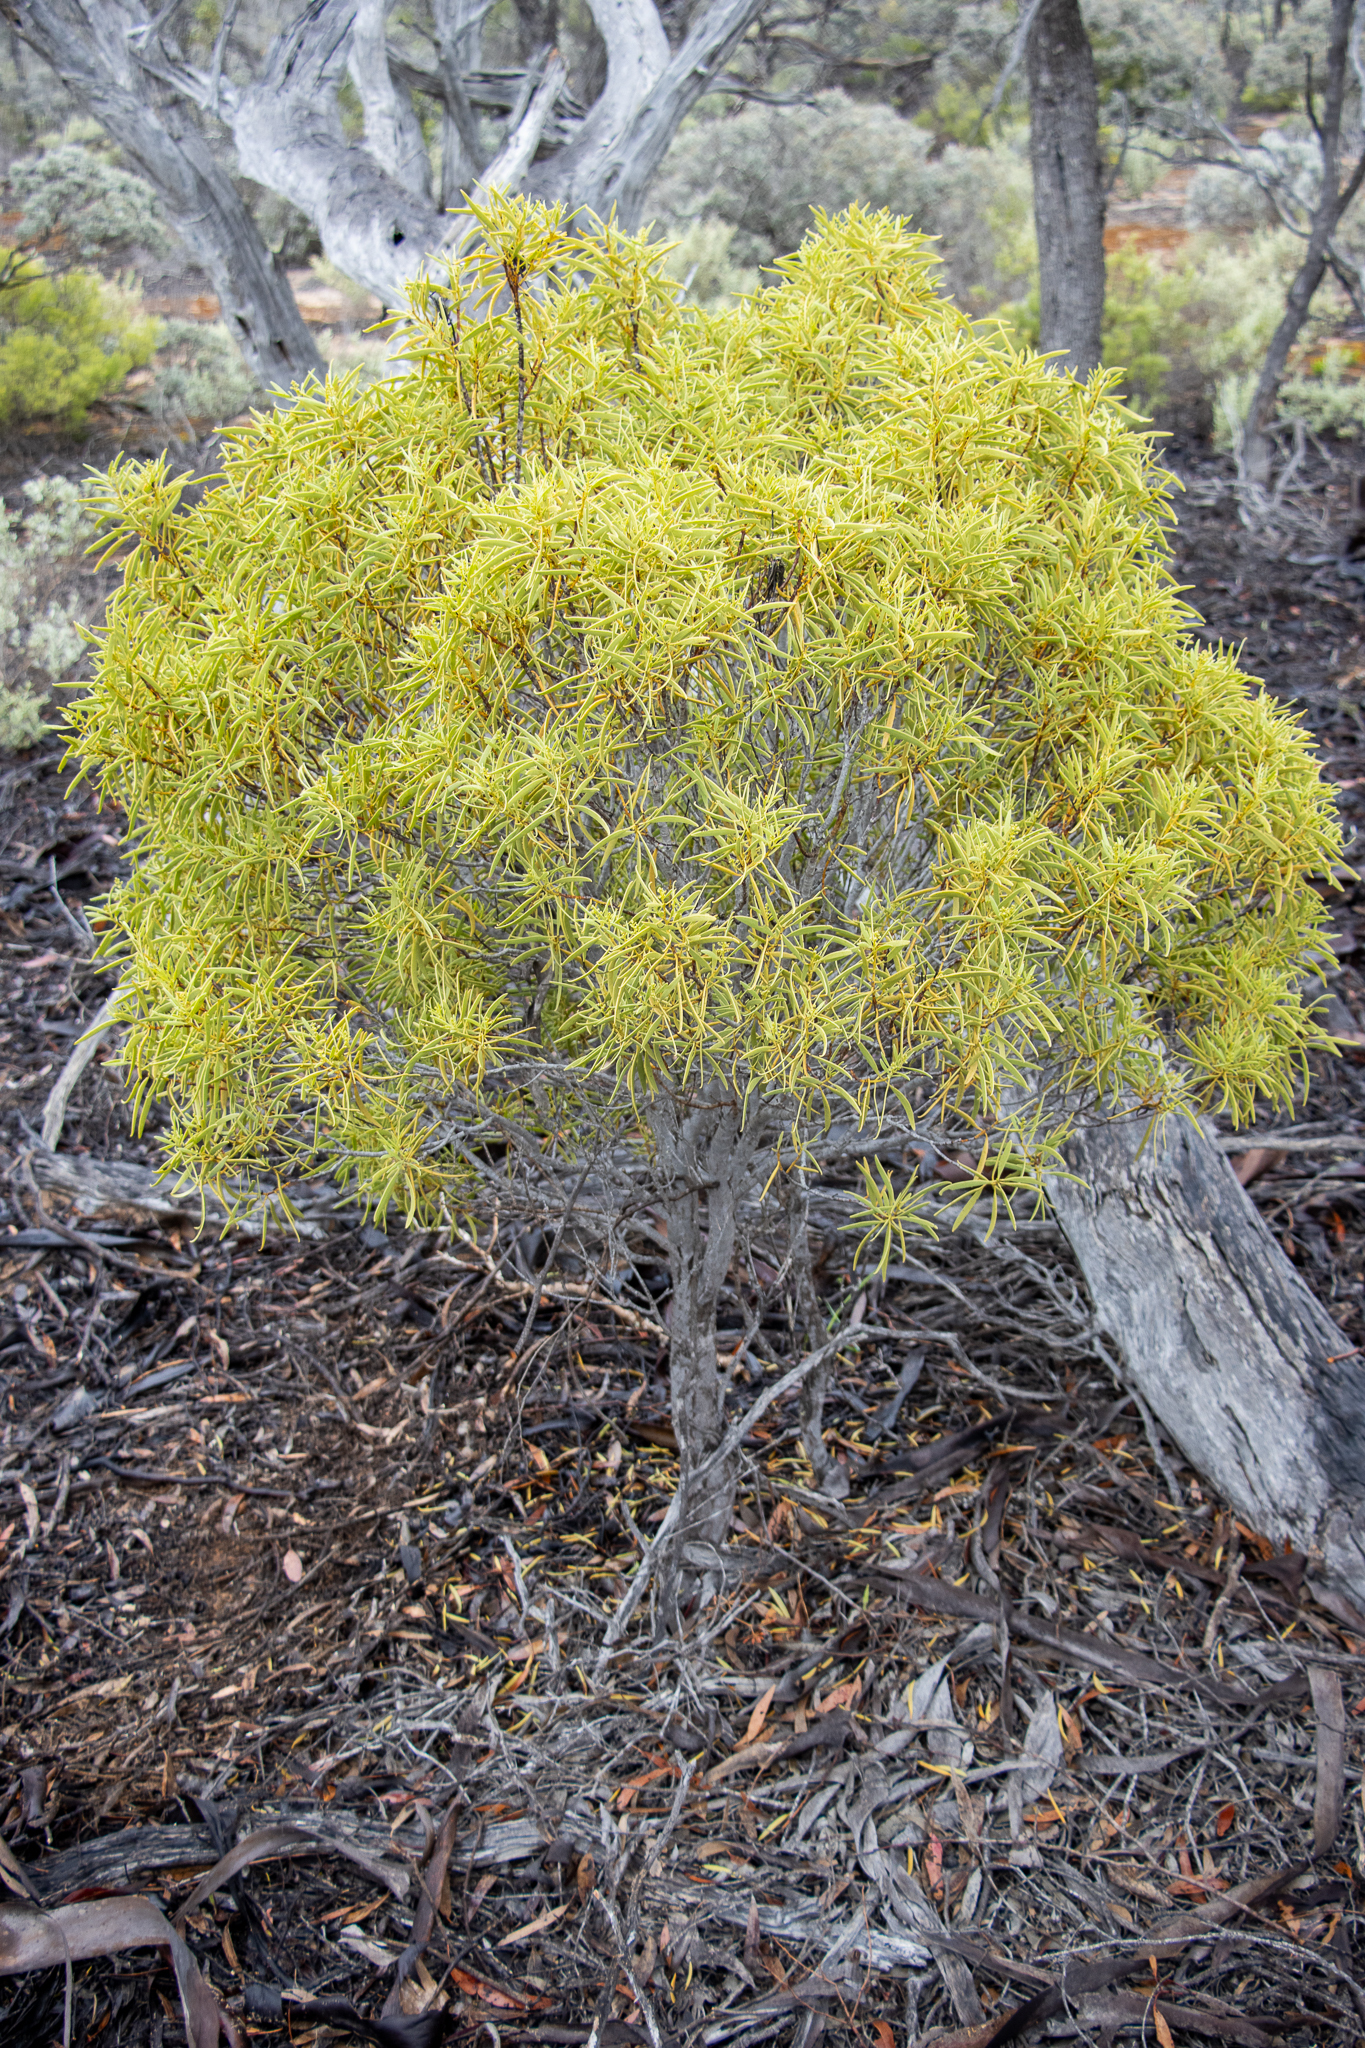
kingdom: Plantae
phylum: Tracheophyta
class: Magnoliopsida
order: Santalales
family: Santalaceae
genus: Santalum
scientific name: Santalum acuminatum
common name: Sweet quandong
